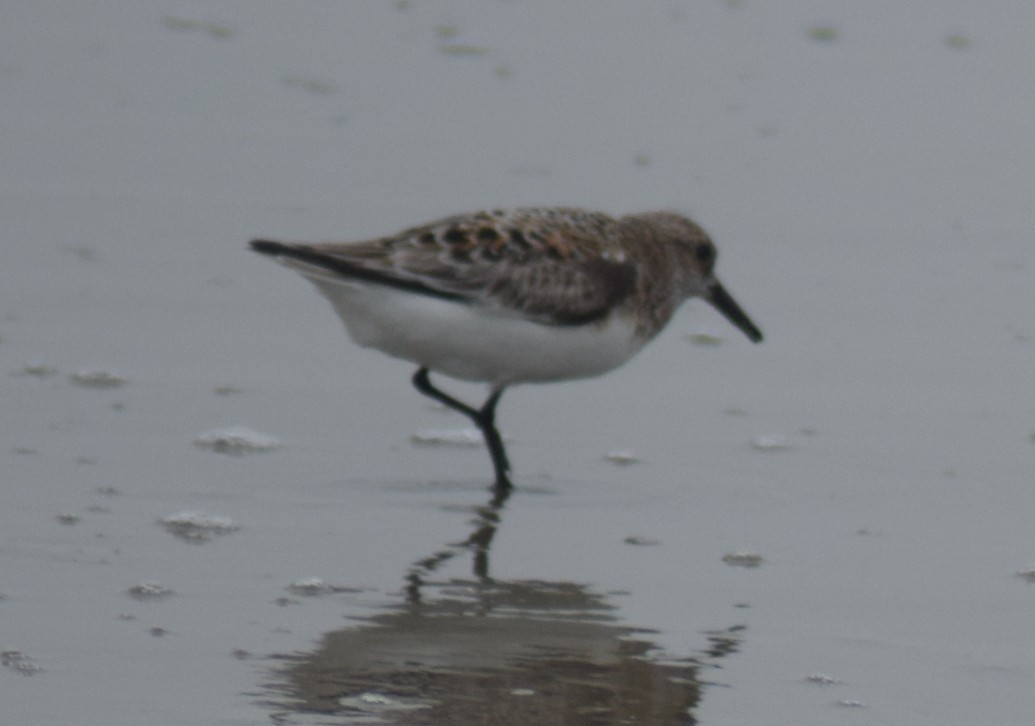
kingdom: Animalia
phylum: Chordata
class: Aves
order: Charadriiformes
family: Scolopacidae
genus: Calidris
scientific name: Calidris alba
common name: Sanderling
